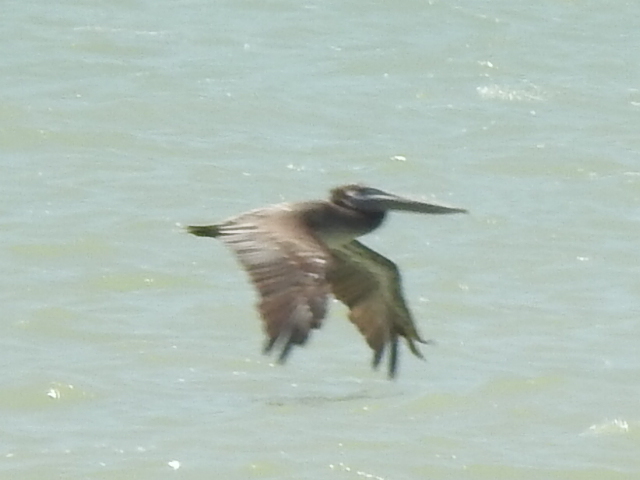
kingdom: Animalia
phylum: Chordata
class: Aves
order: Pelecaniformes
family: Pelecanidae
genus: Pelecanus
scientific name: Pelecanus occidentalis
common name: Brown pelican
